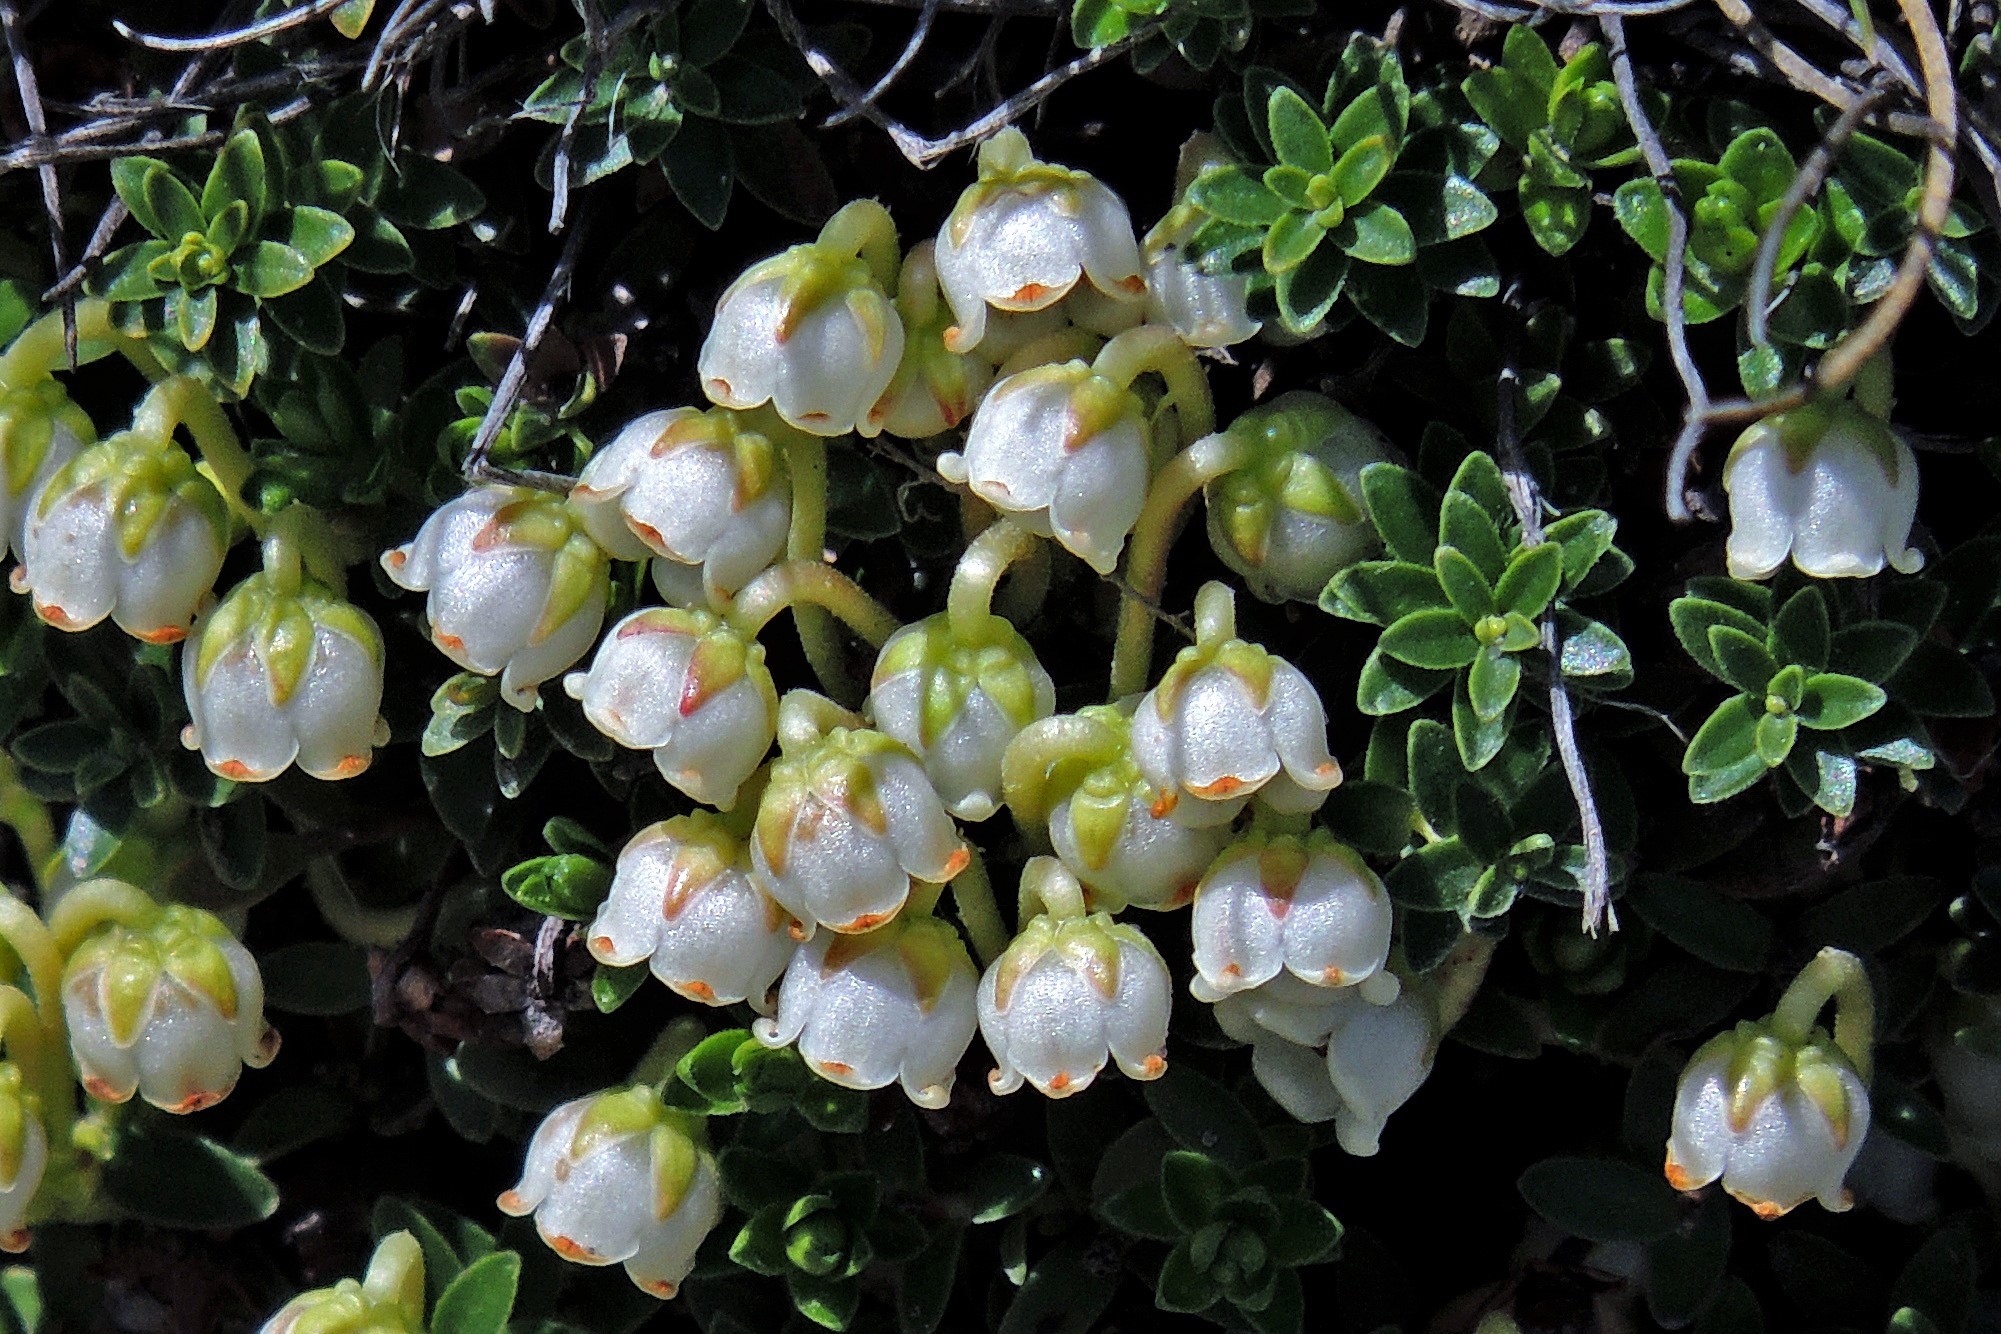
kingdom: Plantae
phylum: Tracheophyta
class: Magnoliopsida
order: Ericales
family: Ericaceae
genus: Gaultheria
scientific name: Gaultheria pumila
